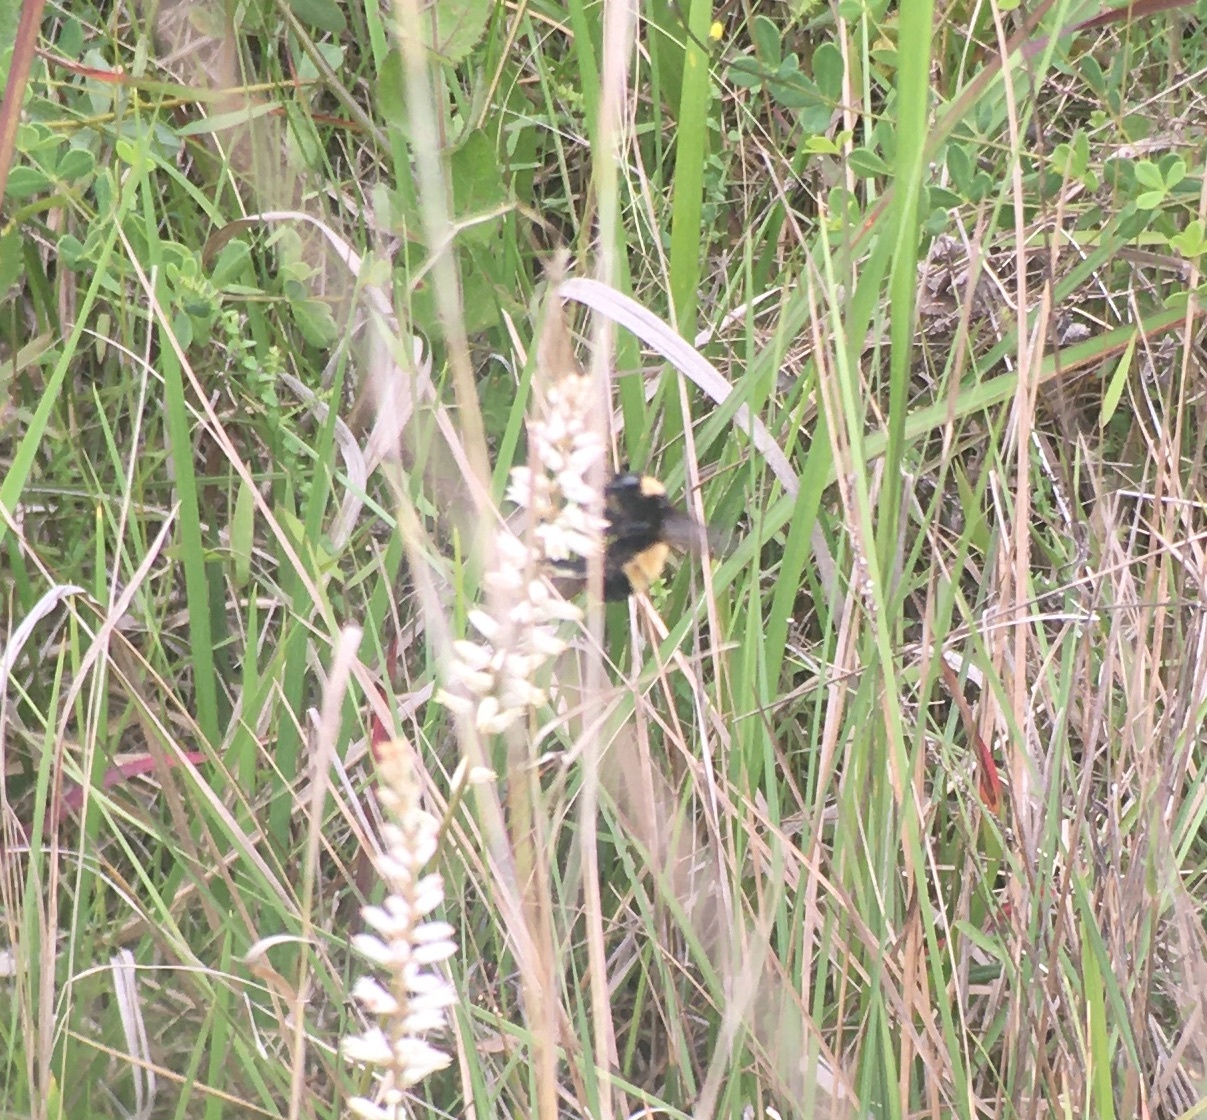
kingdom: Animalia
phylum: Arthropoda
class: Insecta
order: Hymenoptera
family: Apidae
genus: Bombus
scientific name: Bombus pensylvanicus
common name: Bumble bee
